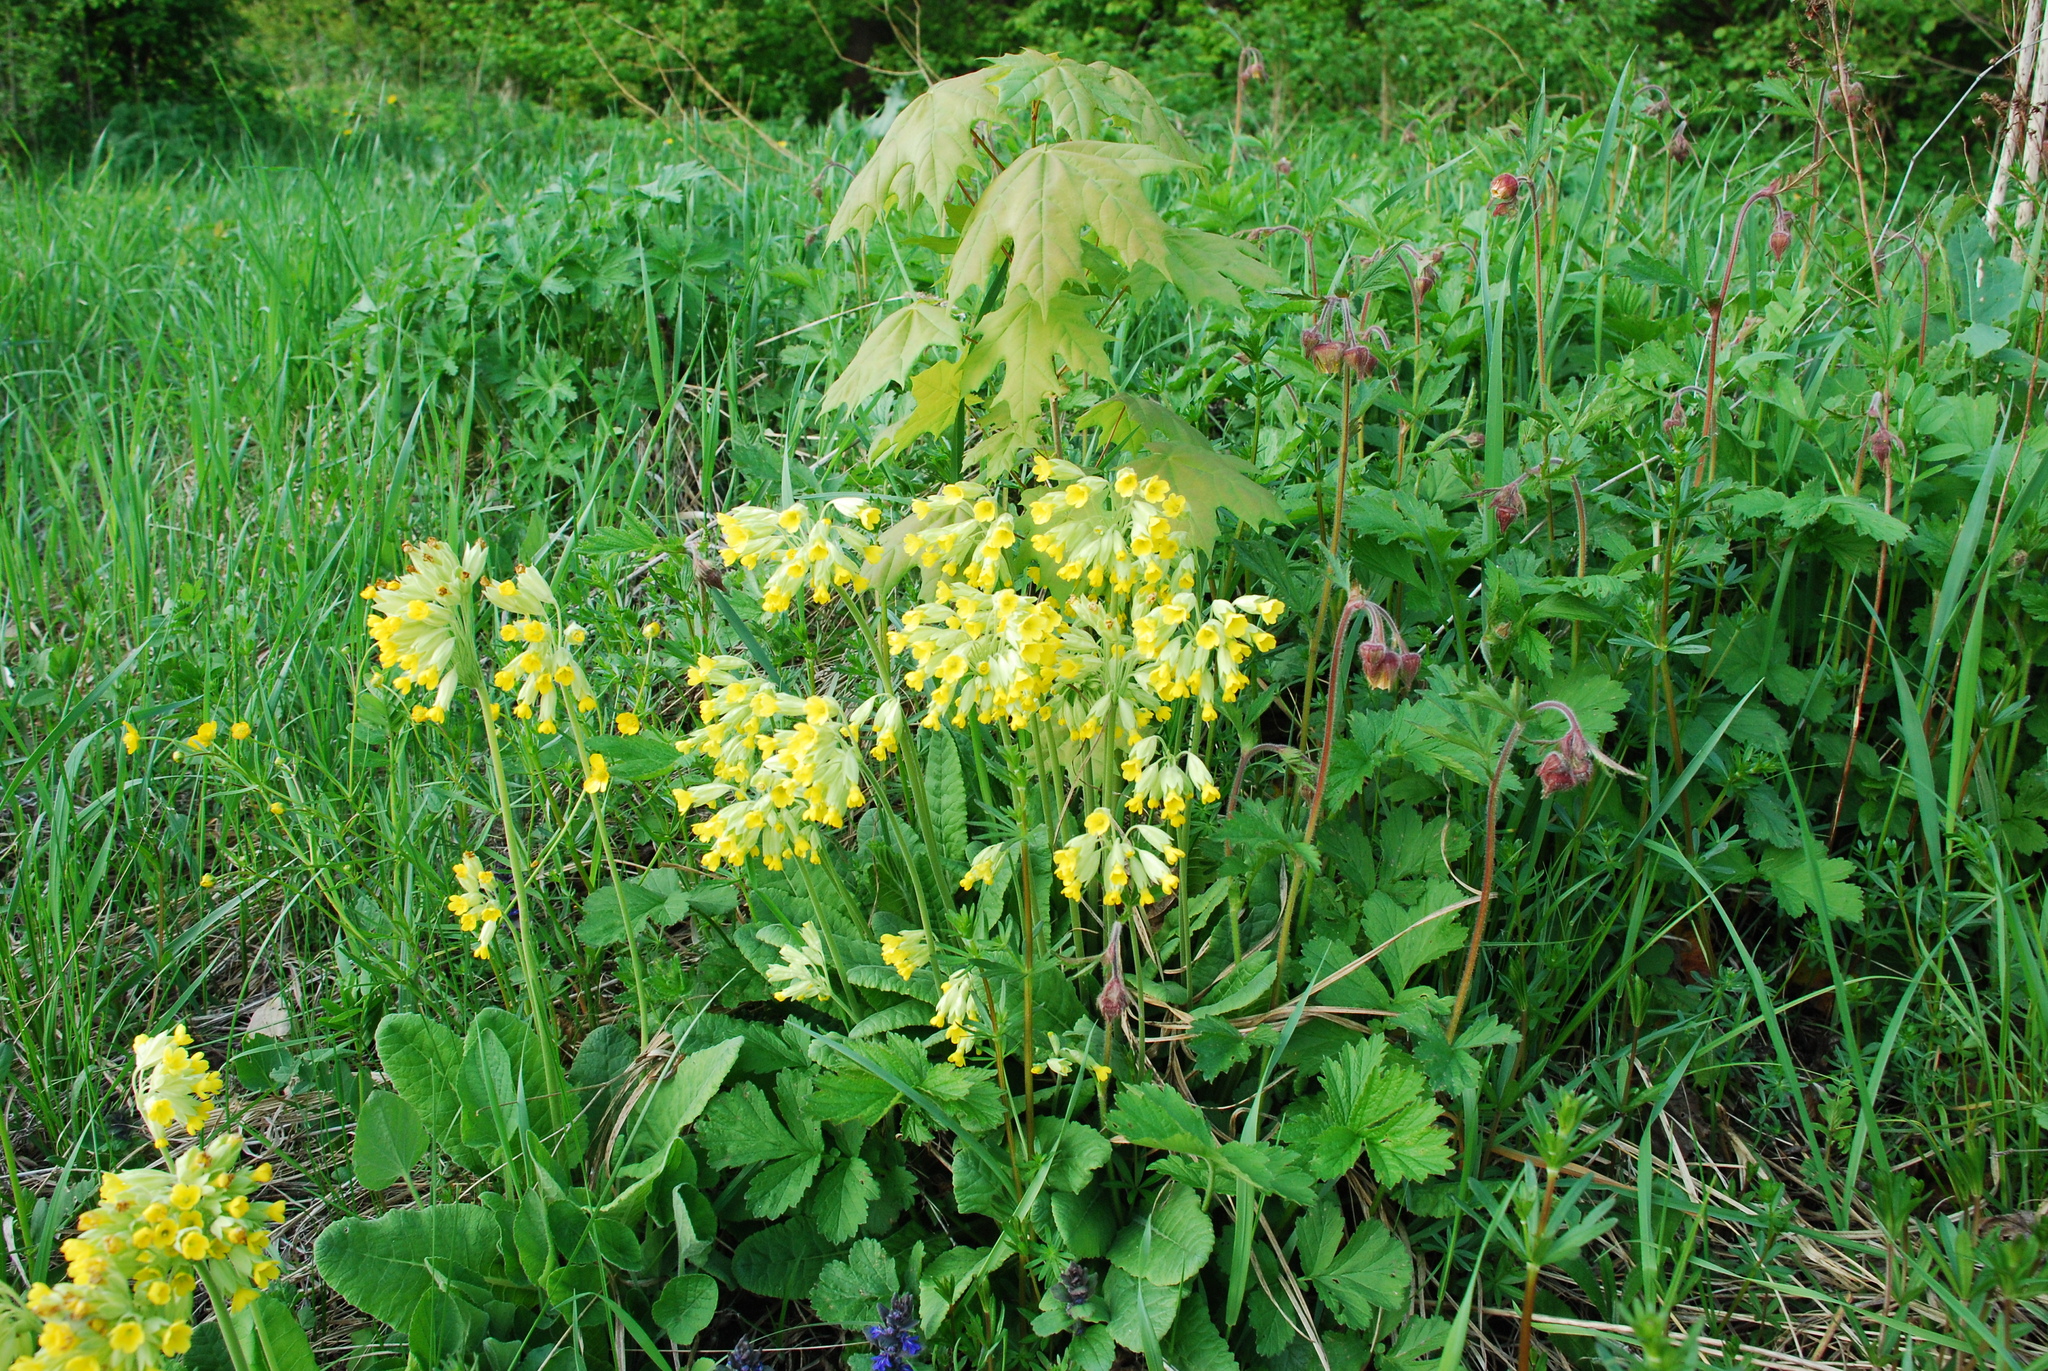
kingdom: Plantae
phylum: Tracheophyta
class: Magnoliopsida
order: Ericales
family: Primulaceae
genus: Primula
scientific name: Primula veris
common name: Cowslip
